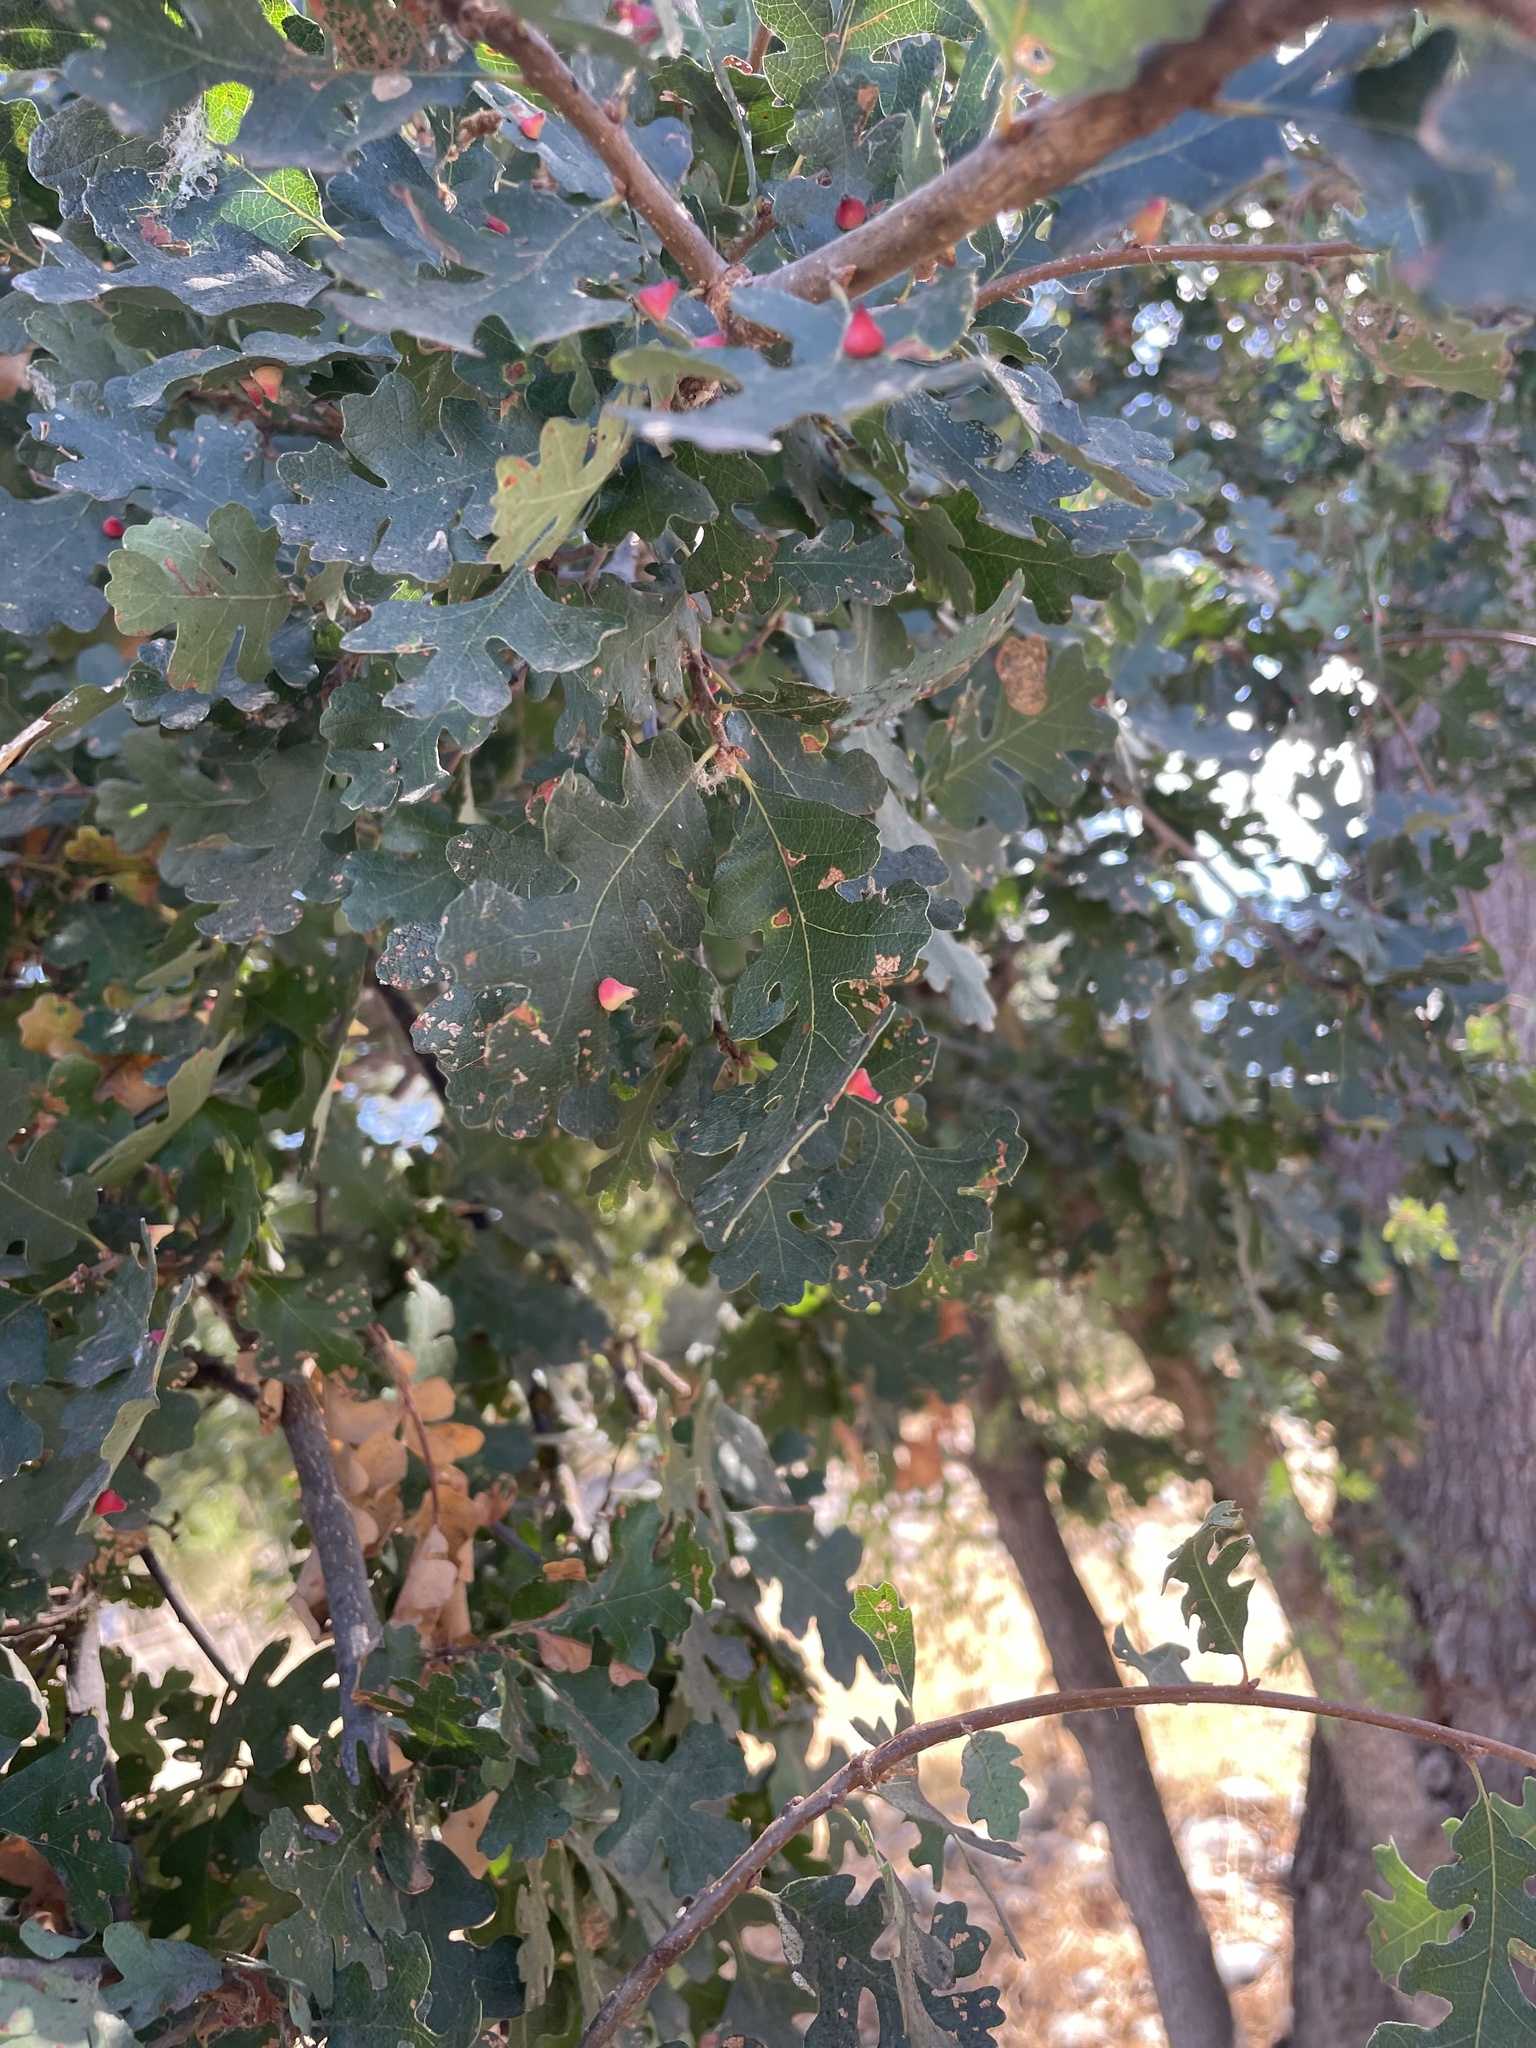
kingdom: Plantae
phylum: Tracheophyta
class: Magnoliopsida
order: Fagales
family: Fagaceae
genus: Quercus
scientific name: Quercus lobata
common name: Valley oak
